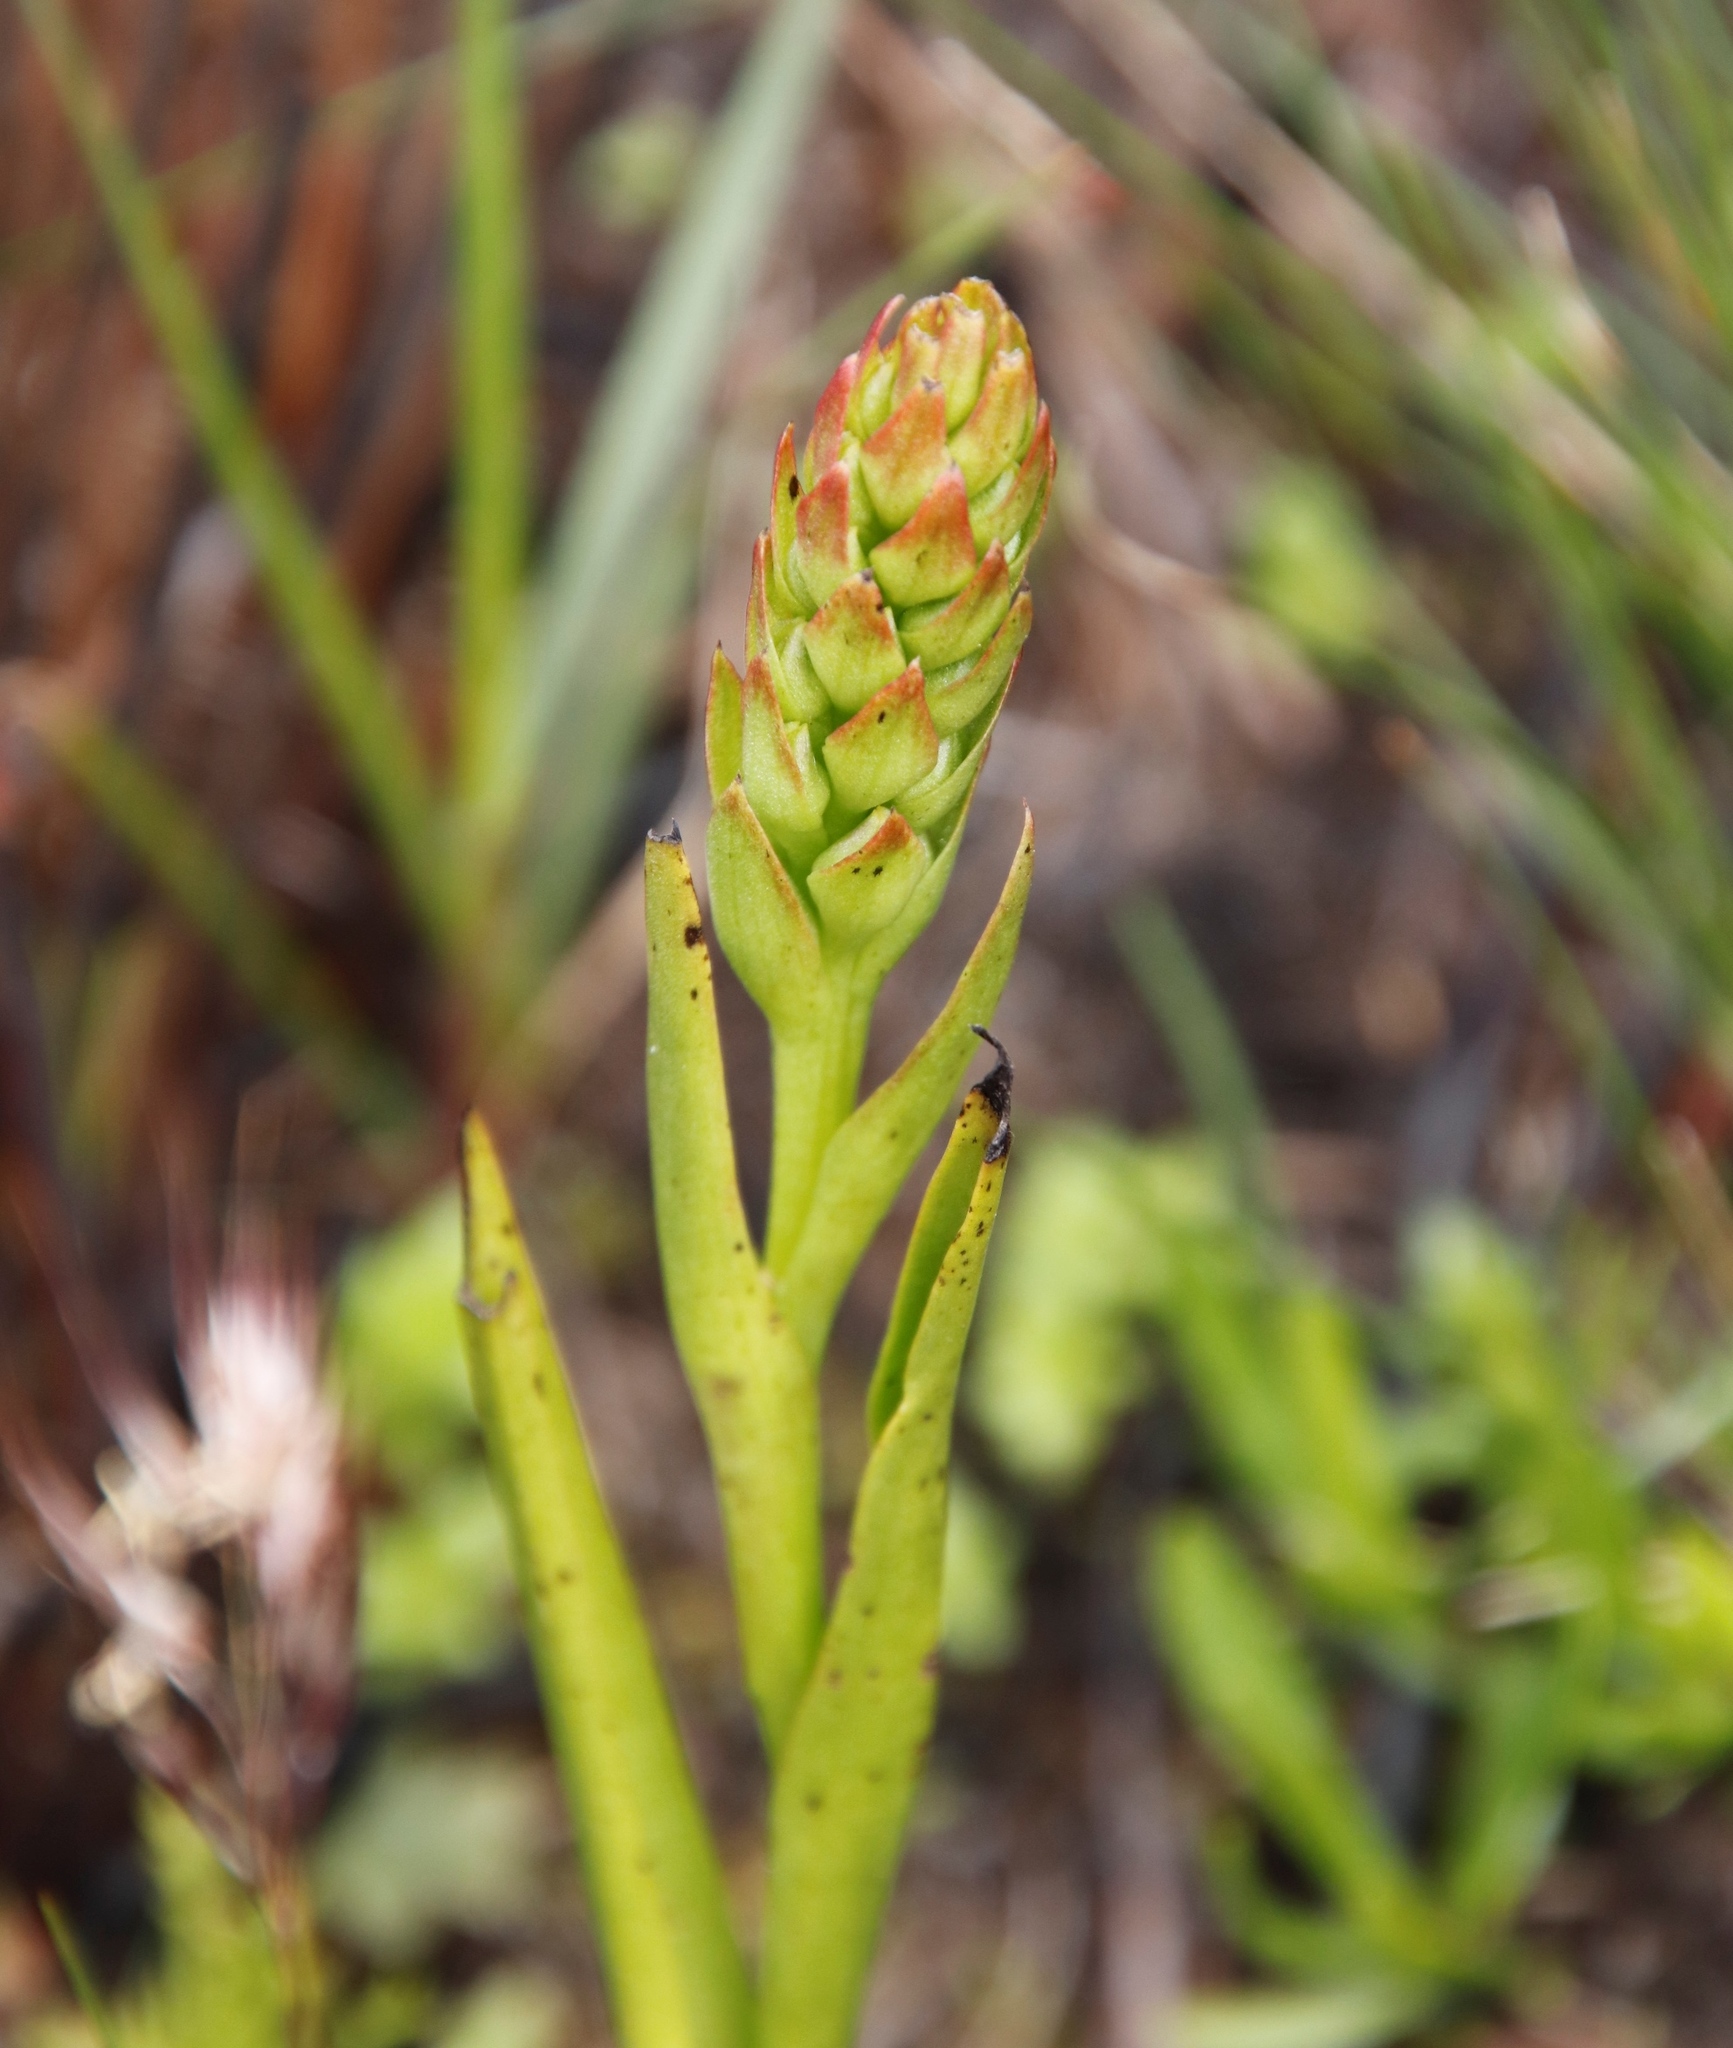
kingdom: Plantae
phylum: Tracheophyta
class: Liliopsida
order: Asparagales
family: Orchidaceae
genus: Evotella
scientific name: Evotella carnosa
